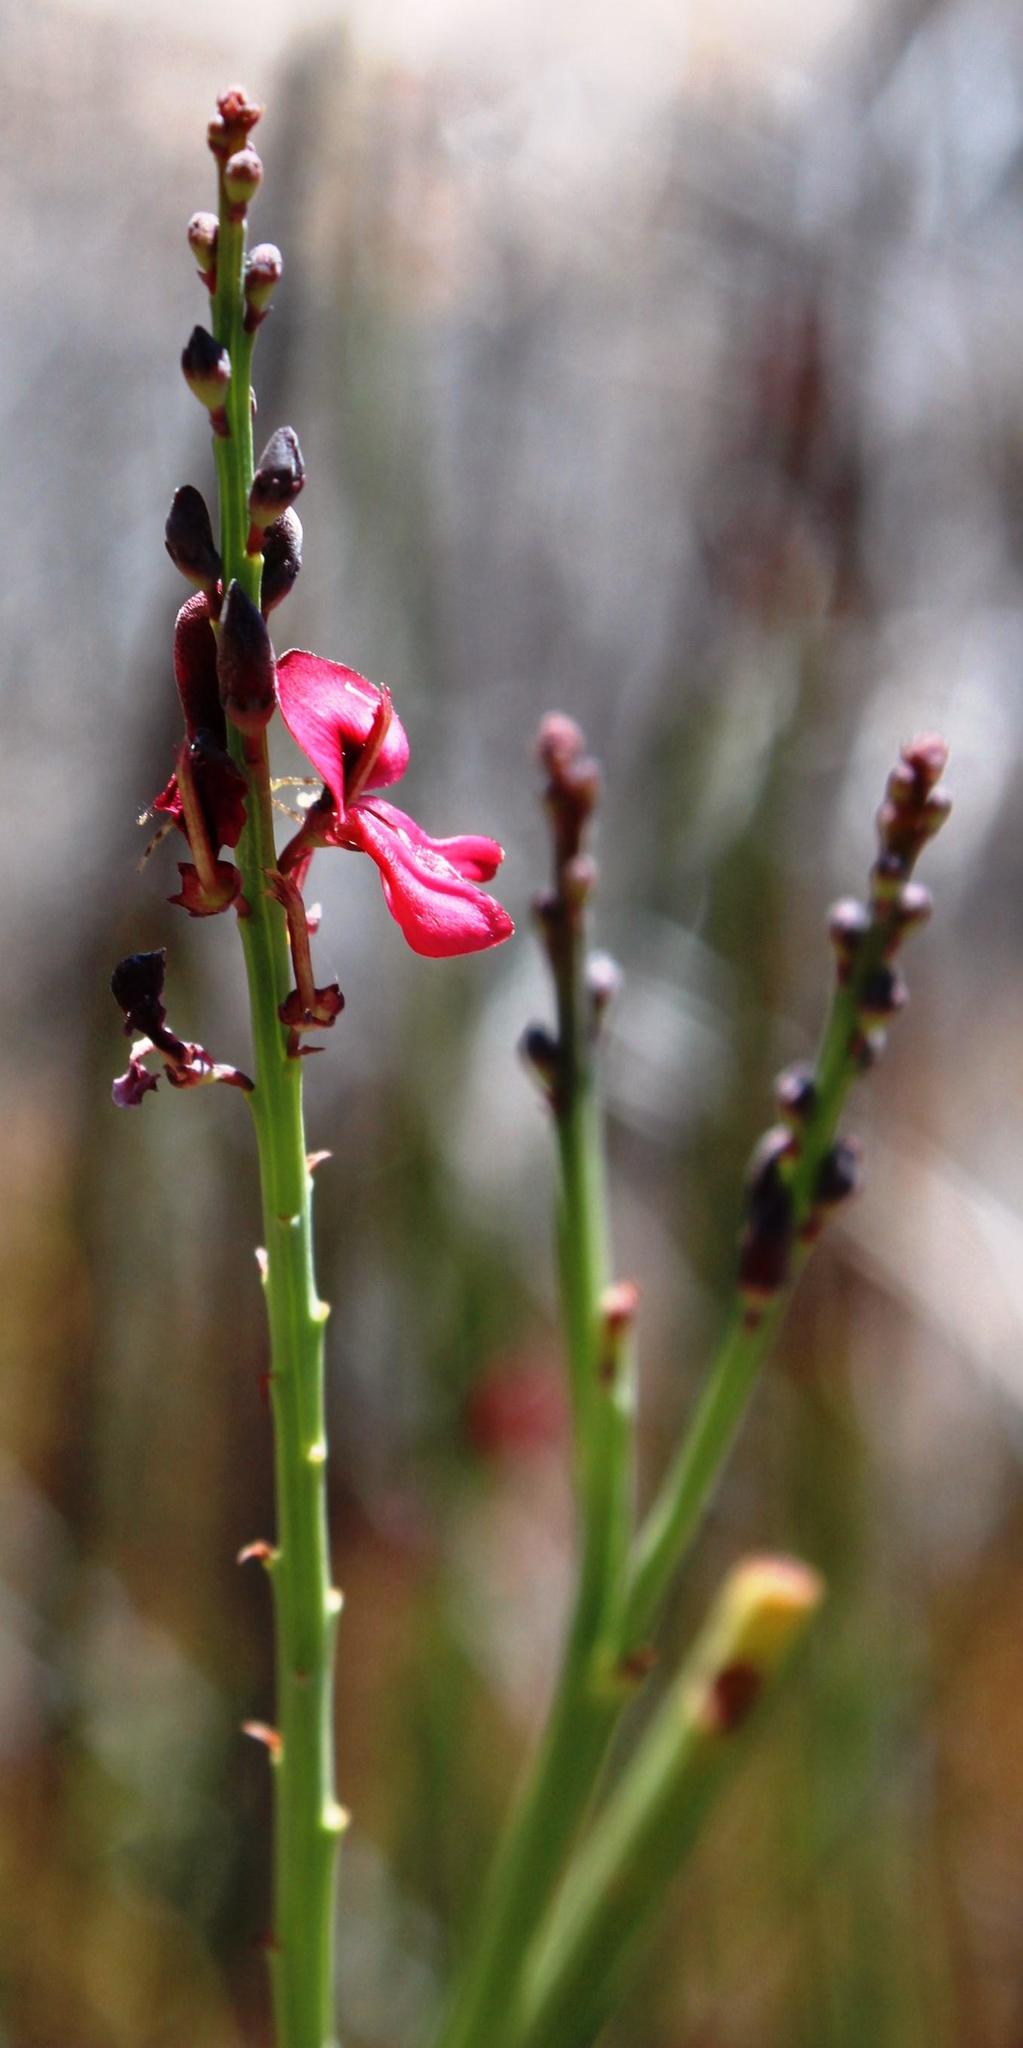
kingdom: Plantae
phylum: Tracheophyta
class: Magnoliopsida
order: Fabales
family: Fabaceae
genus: Indigofera
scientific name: Indigofera gifbergensis
